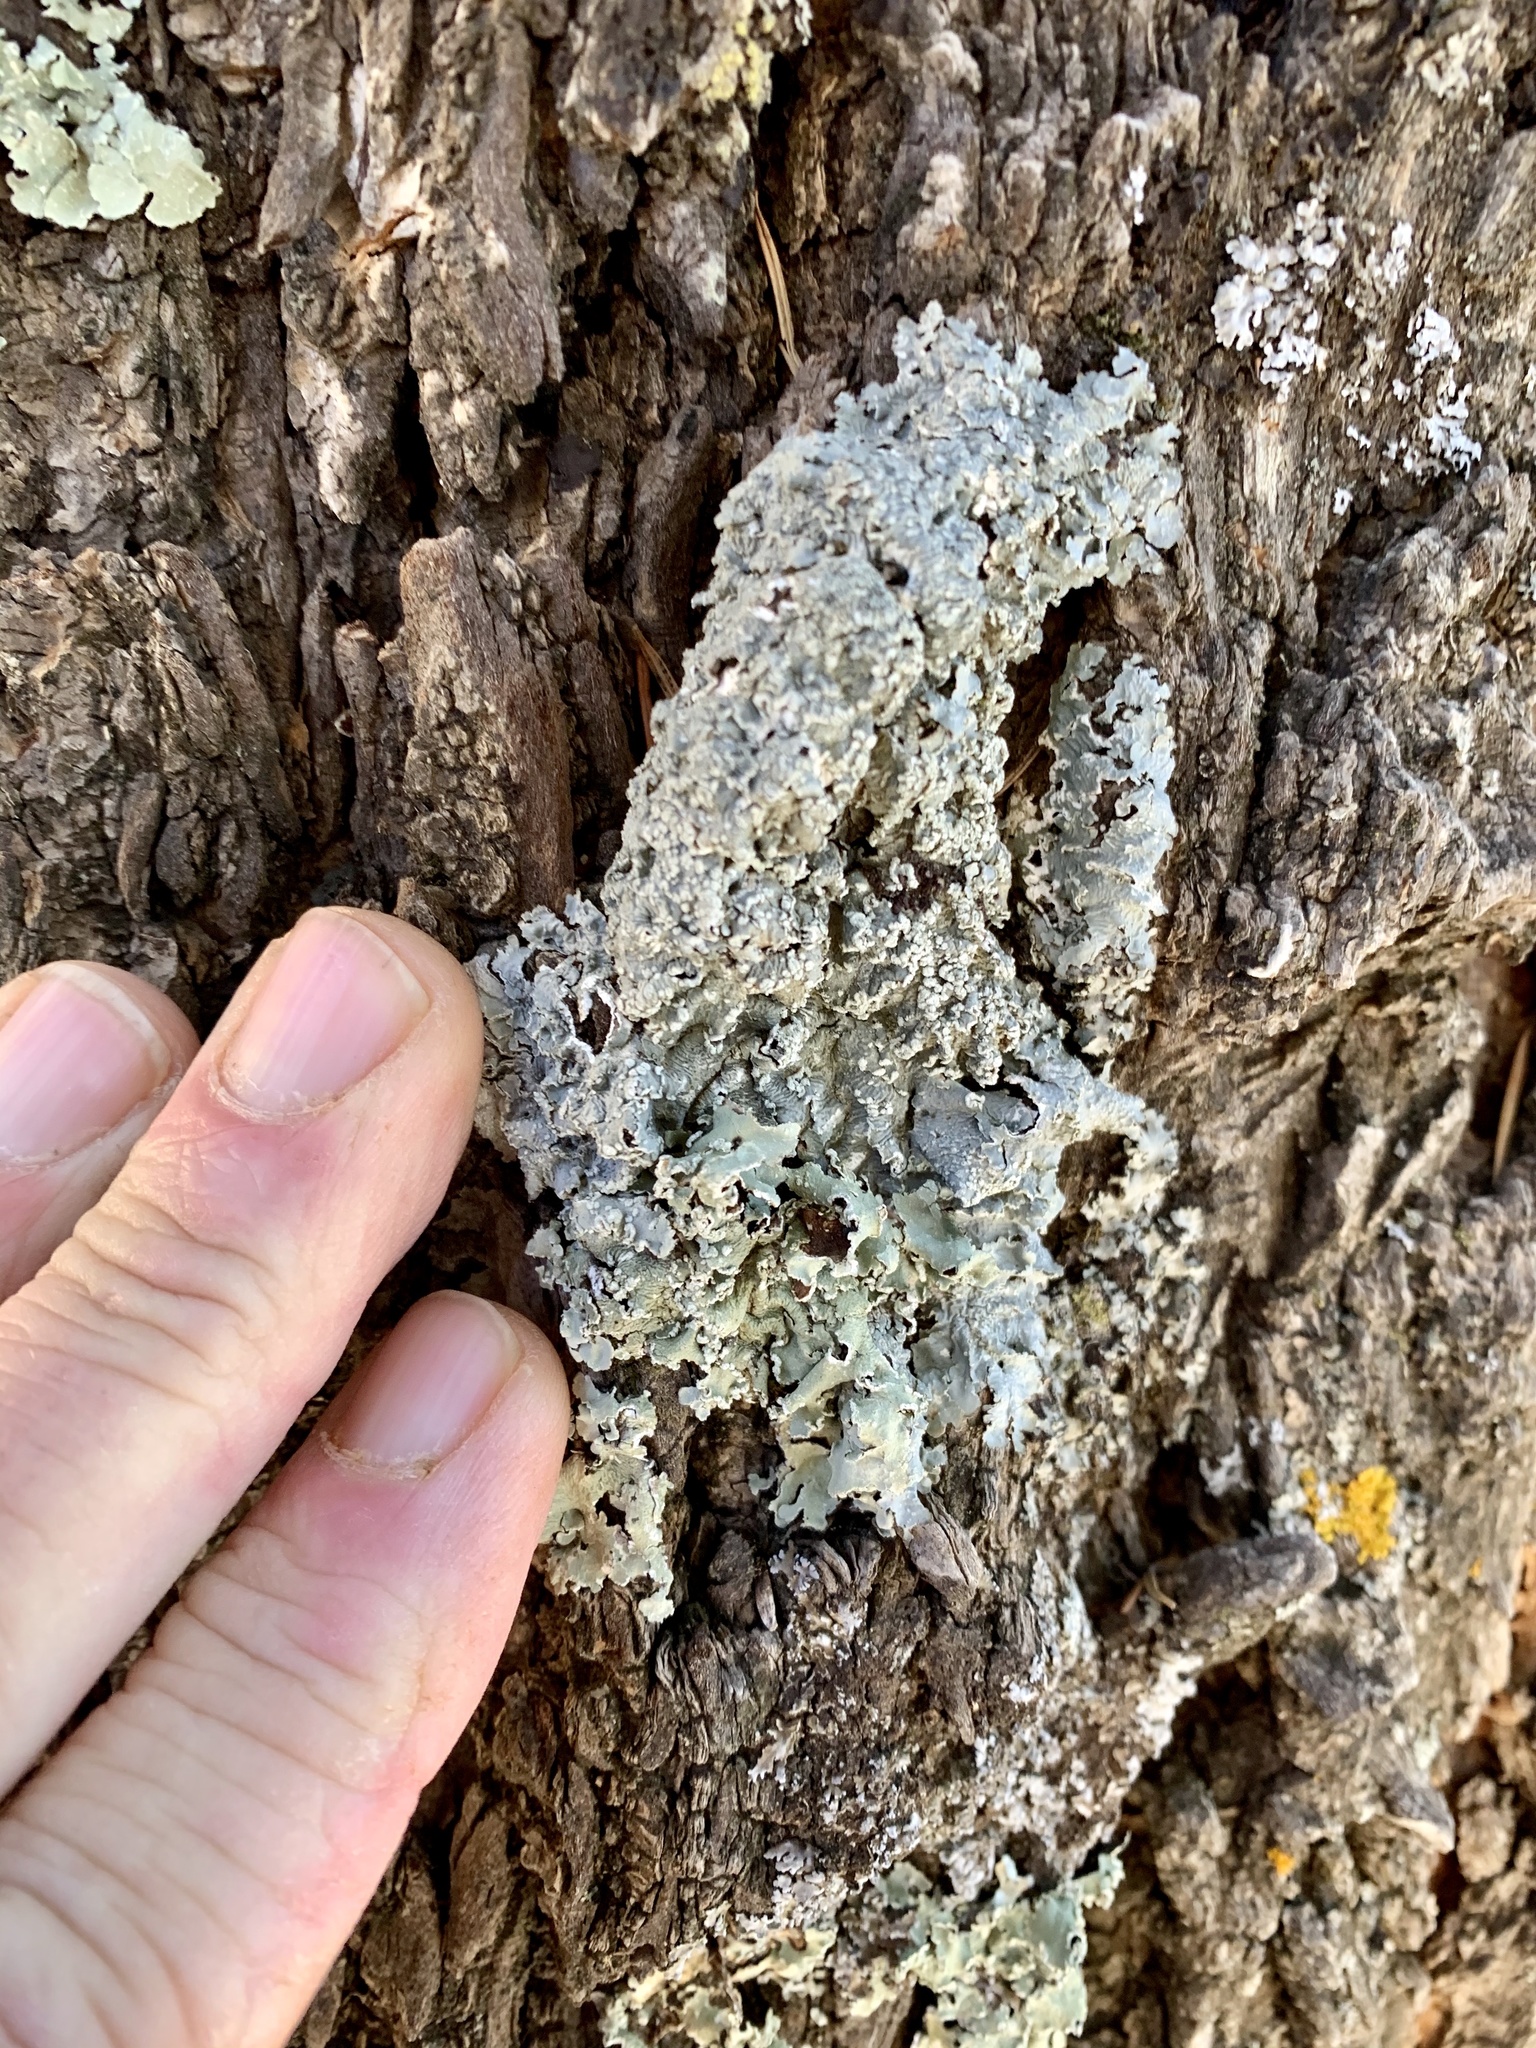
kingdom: Fungi
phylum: Ascomycota
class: Lecanoromycetes
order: Lecanorales
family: Parmeliaceae
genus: Flavopunctelia
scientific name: Flavopunctelia flaventior
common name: Speckled greenshield
